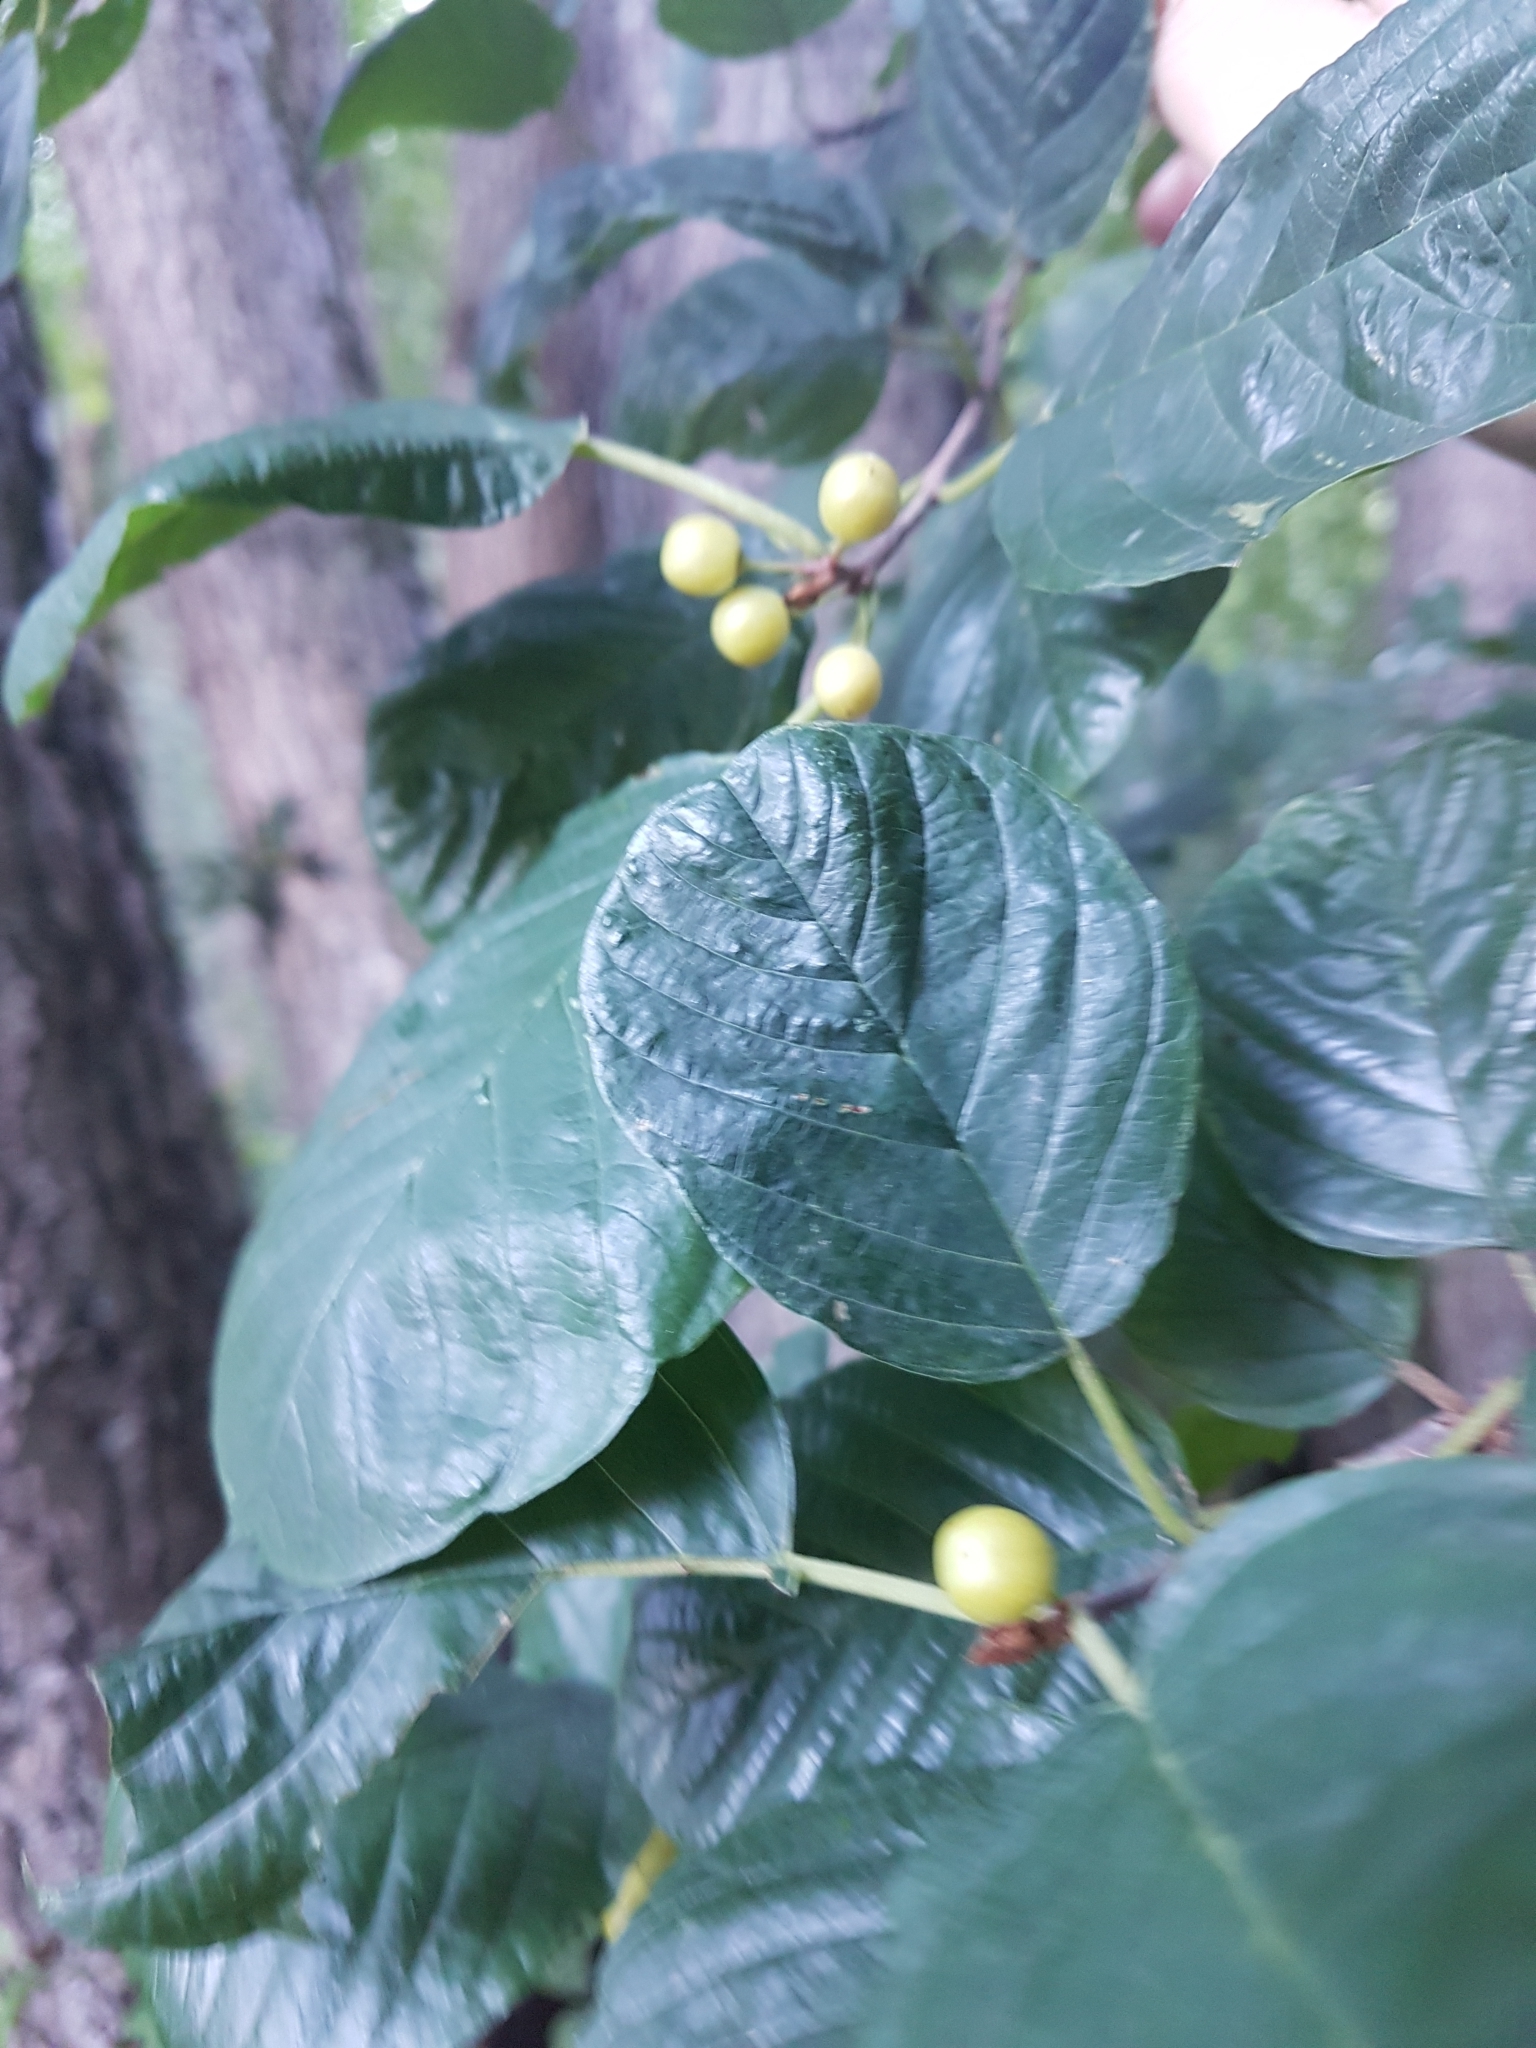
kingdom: Plantae
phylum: Tracheophyta
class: Magnoliopsida
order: Rosales
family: Rhamnaceae
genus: Frangula
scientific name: Frangula alnus
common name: Alder buckthorn
